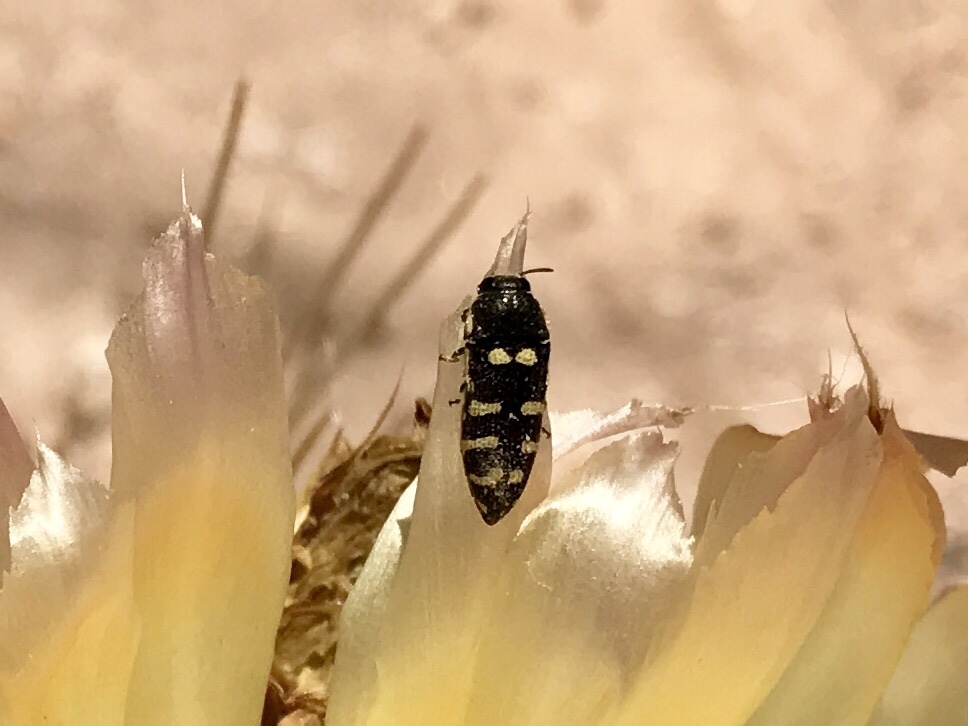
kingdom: Animalia
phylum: Arthropoda
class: Insecta
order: Coleoptera
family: Buprestidae
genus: Acmaeodera
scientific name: Acmaeodera alicia
